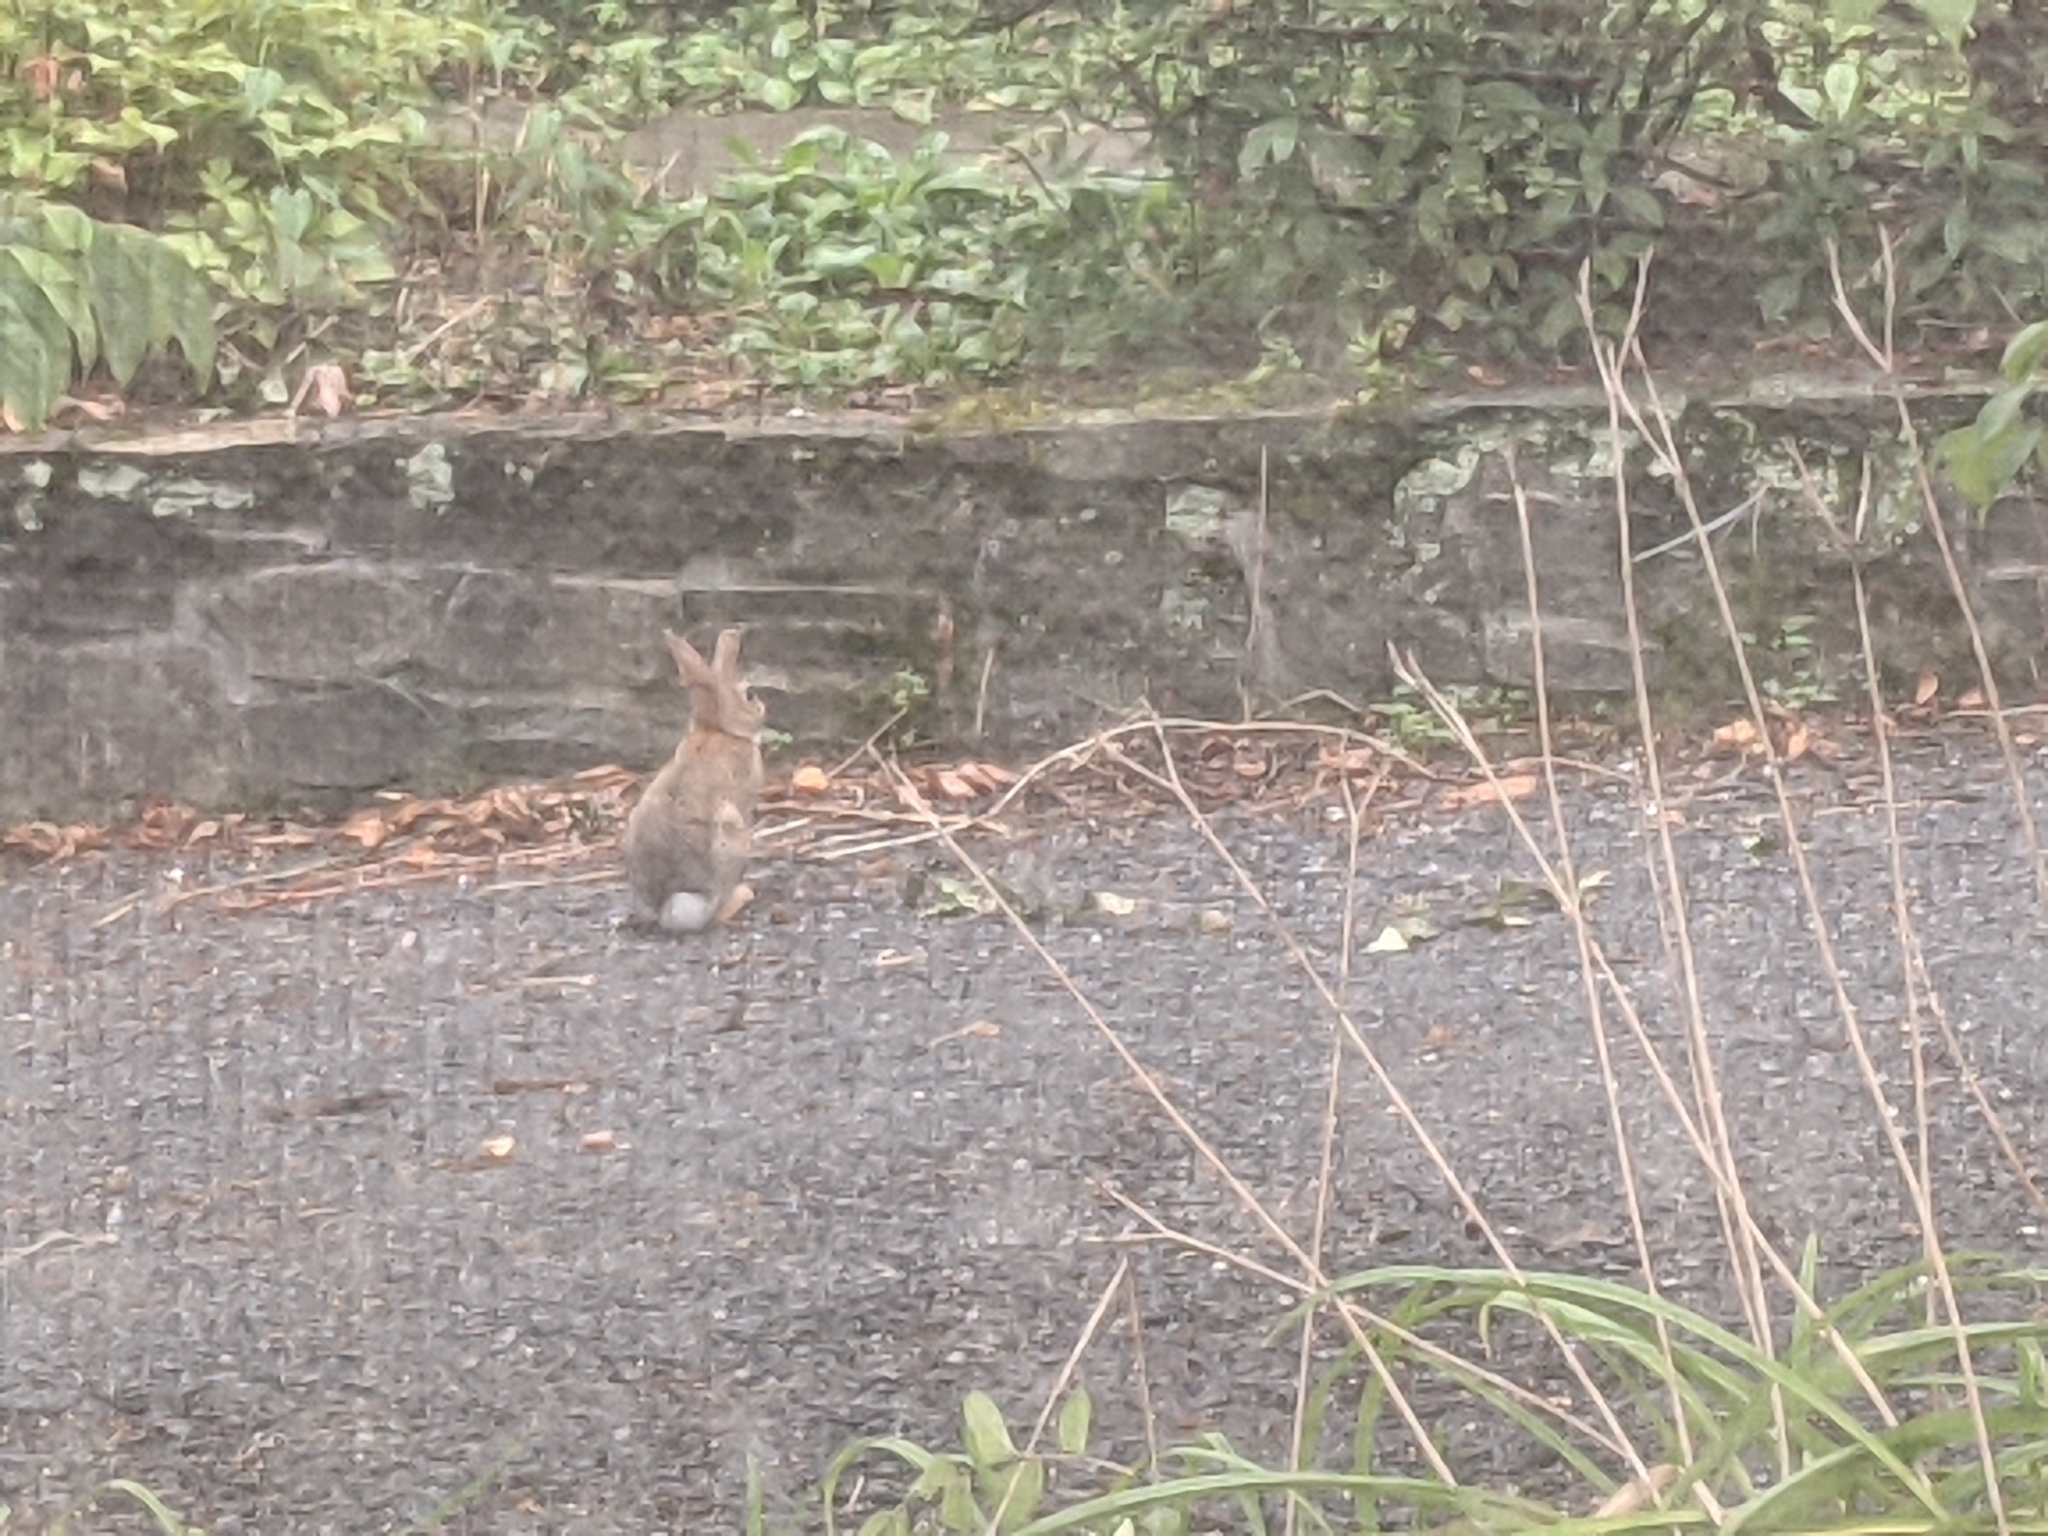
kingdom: Animalia
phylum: Chordata
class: Mammalia
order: Lagomorpha
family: Leporidae
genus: Sylvilagus
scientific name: Sylvilagus floridanus
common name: Eastern cottontail
